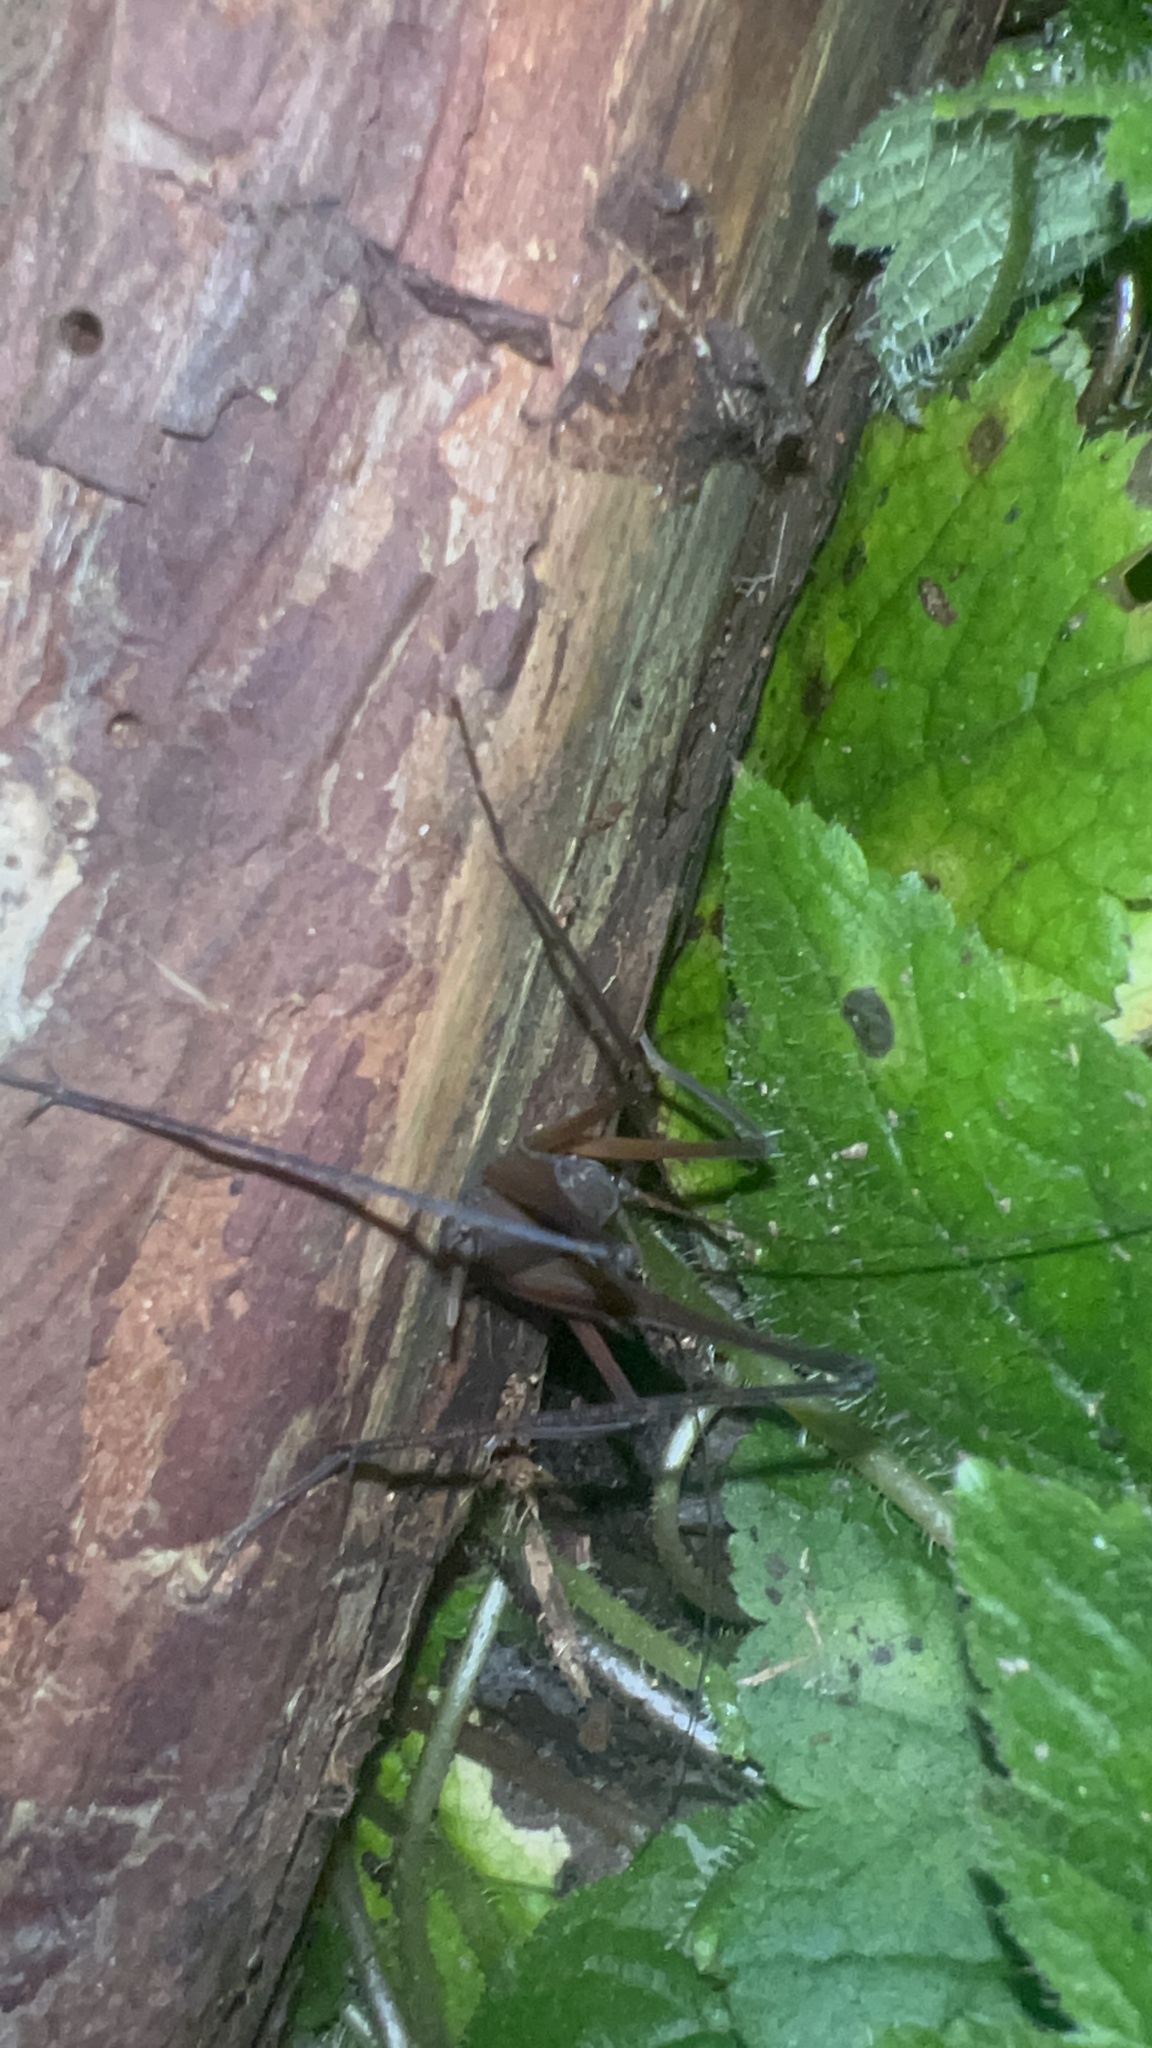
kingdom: Animalia
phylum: Arthropoda
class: Insecta
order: Orthoptera
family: Rhaphidophoridae
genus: Tropidischia
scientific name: Tropidischia xanthostoma
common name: Square-legged camel cricket
